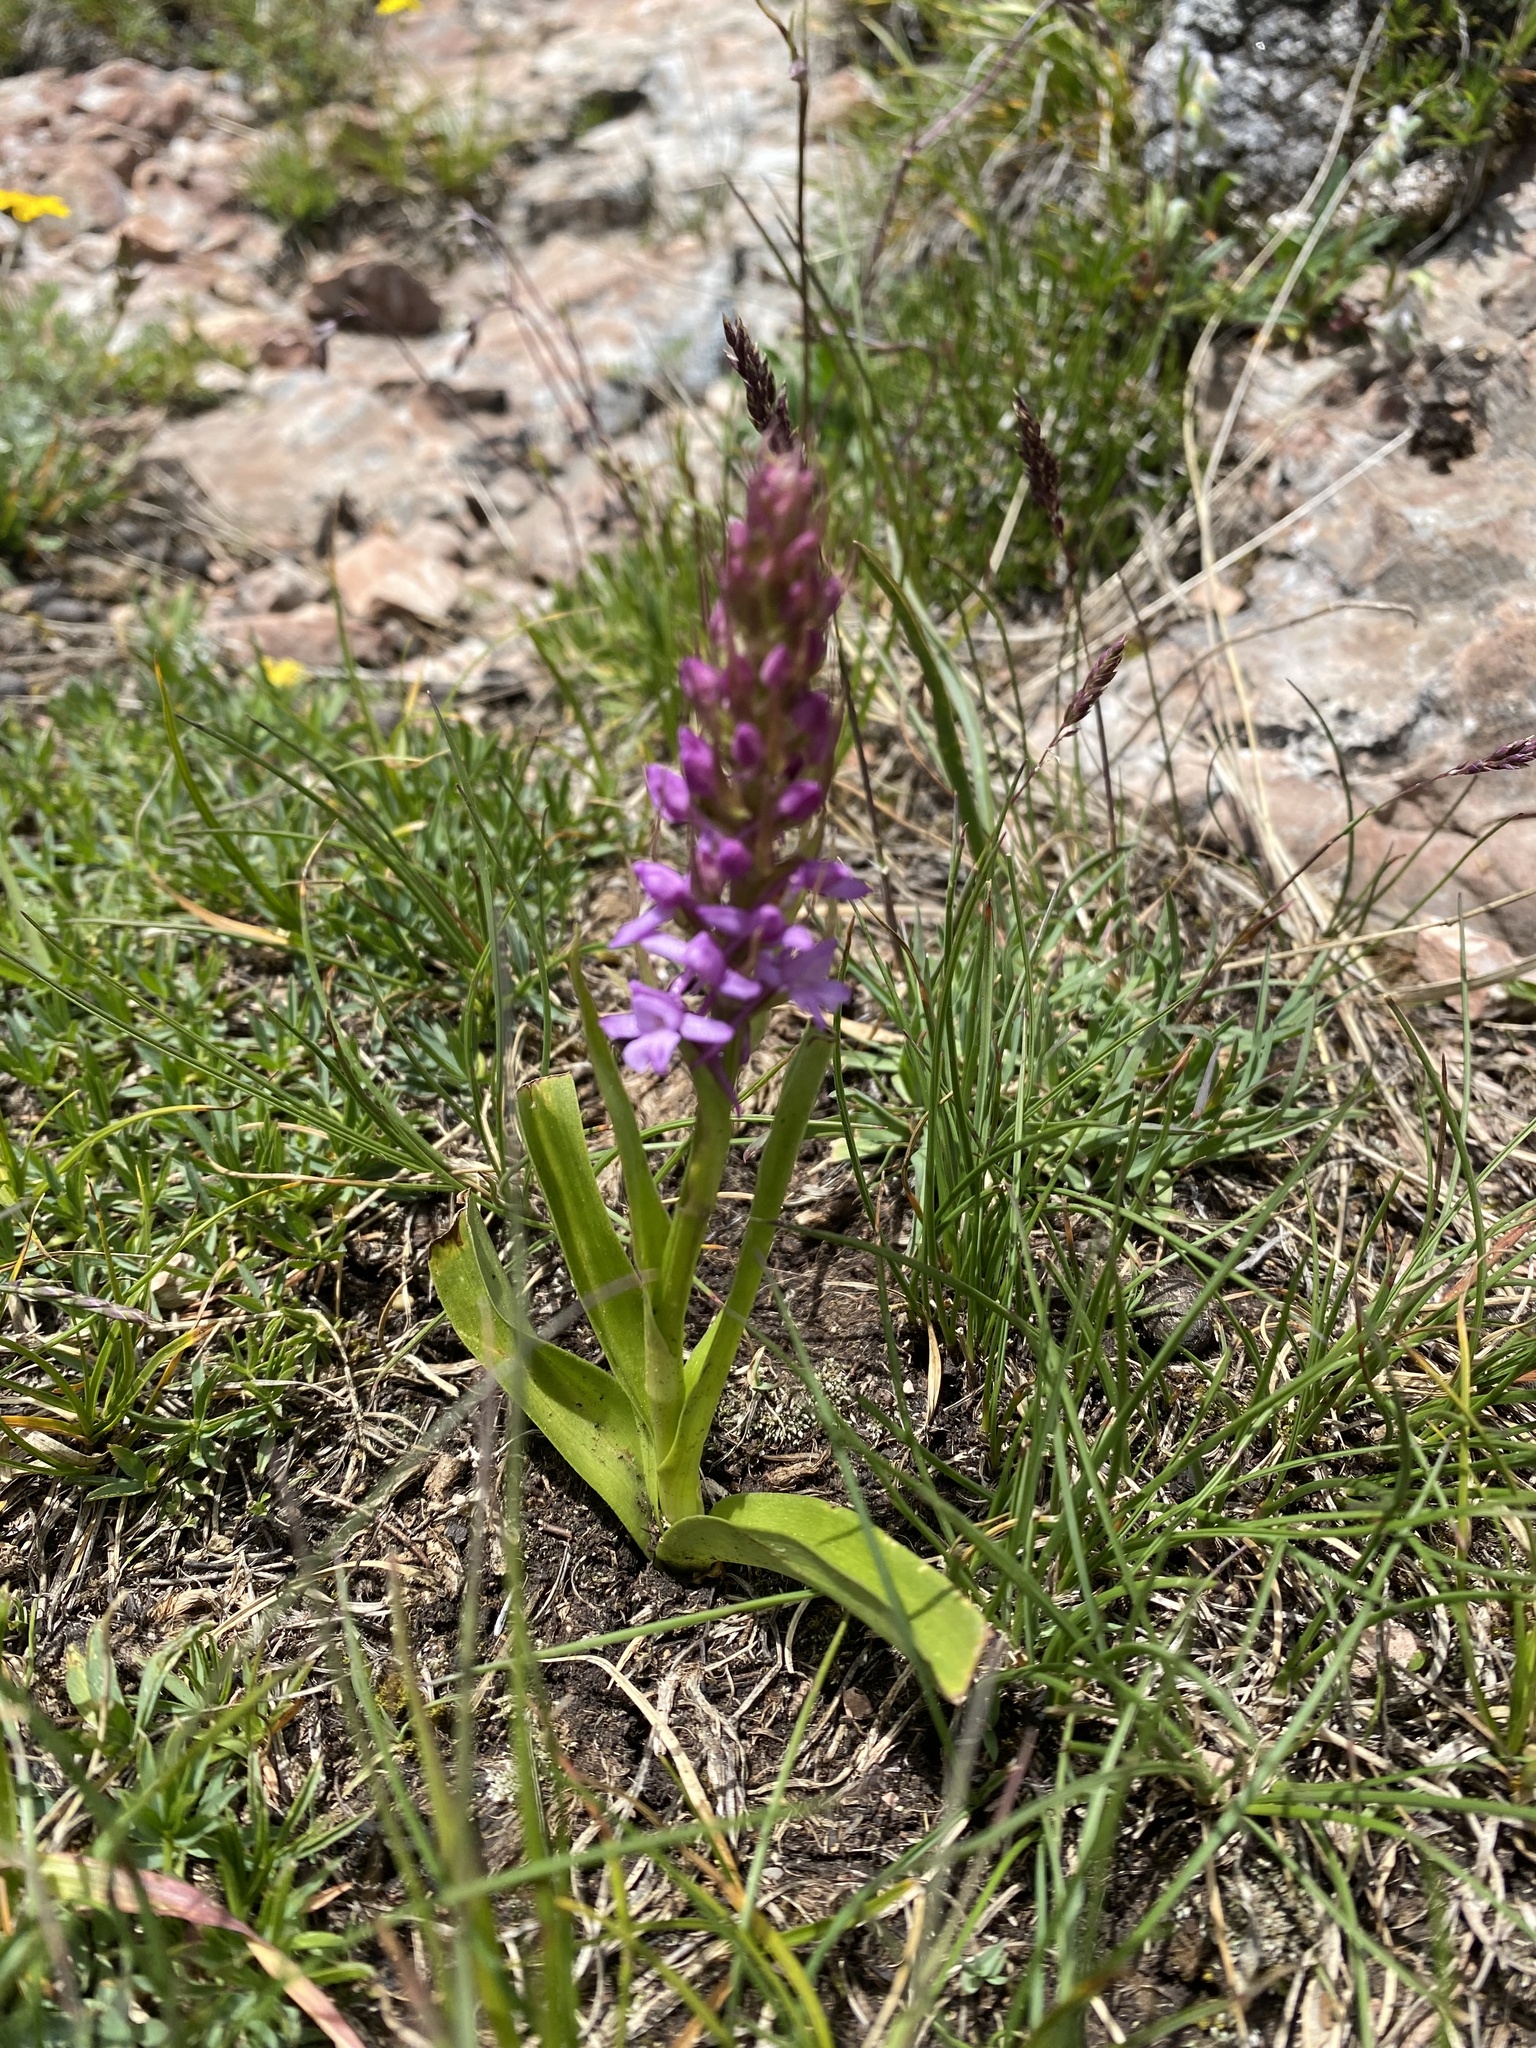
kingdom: Plantae
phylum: Tracheophyta
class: Liliopsida
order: Asparagales
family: Orchidaceae
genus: Gymnadenia
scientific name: Gymnadenia conopsea
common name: Fragrant orchid
